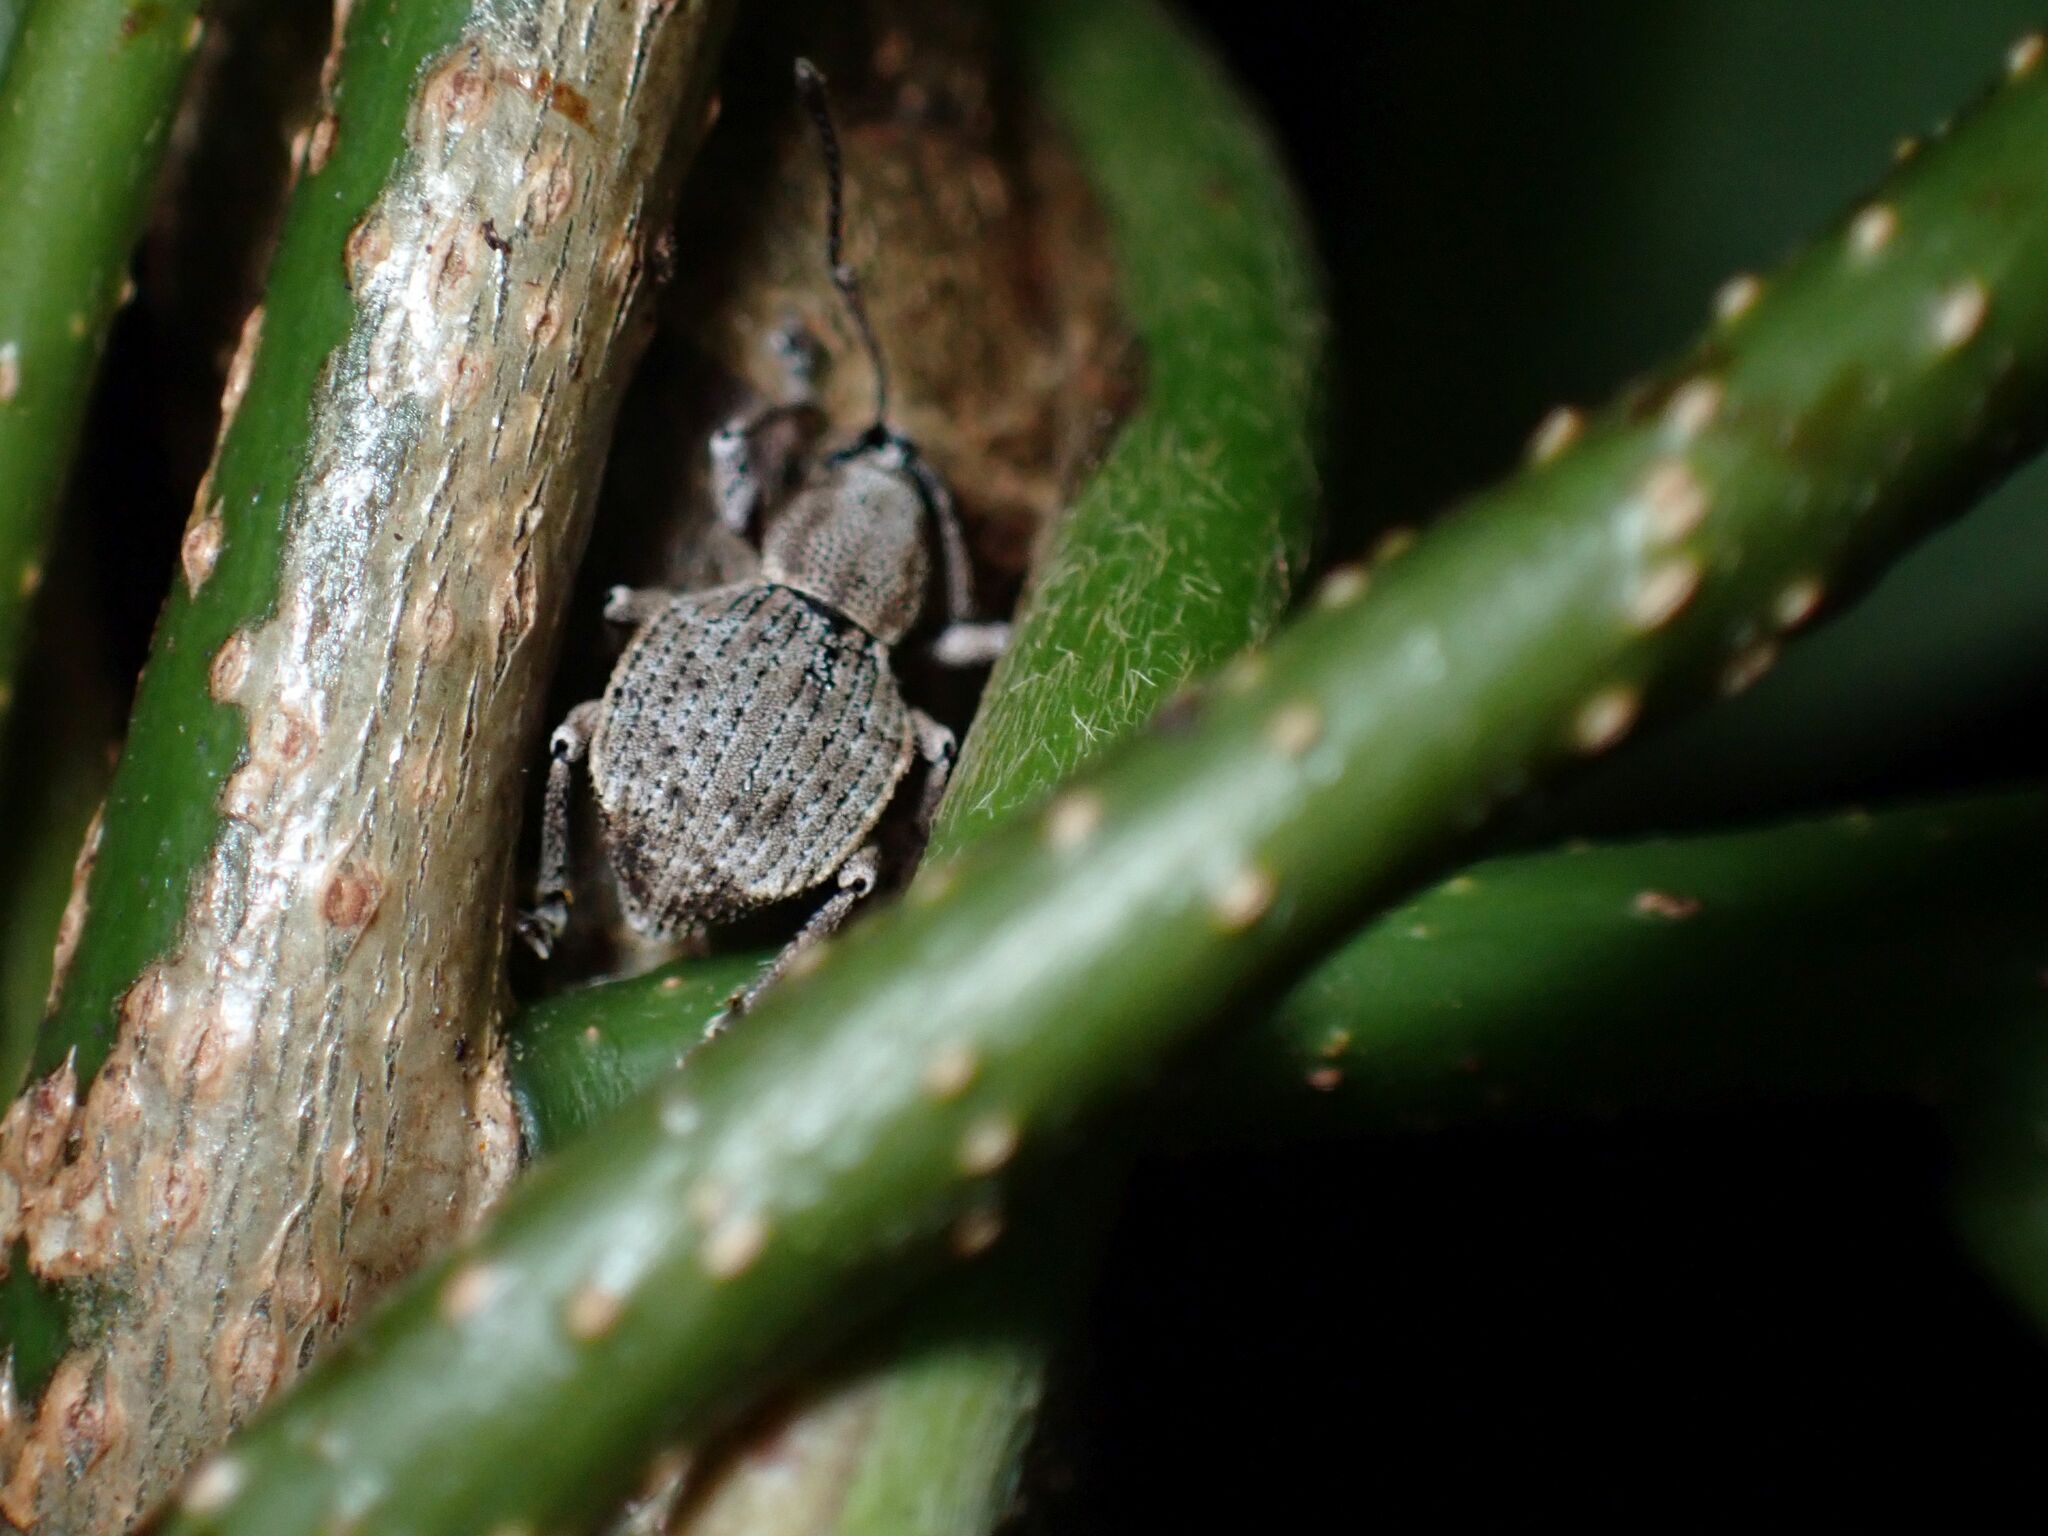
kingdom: Animalia
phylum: Arthropoda
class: Insecta
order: Coleoptera
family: Curculionidae
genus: Platysimus
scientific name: Platysimus septentrionalis
